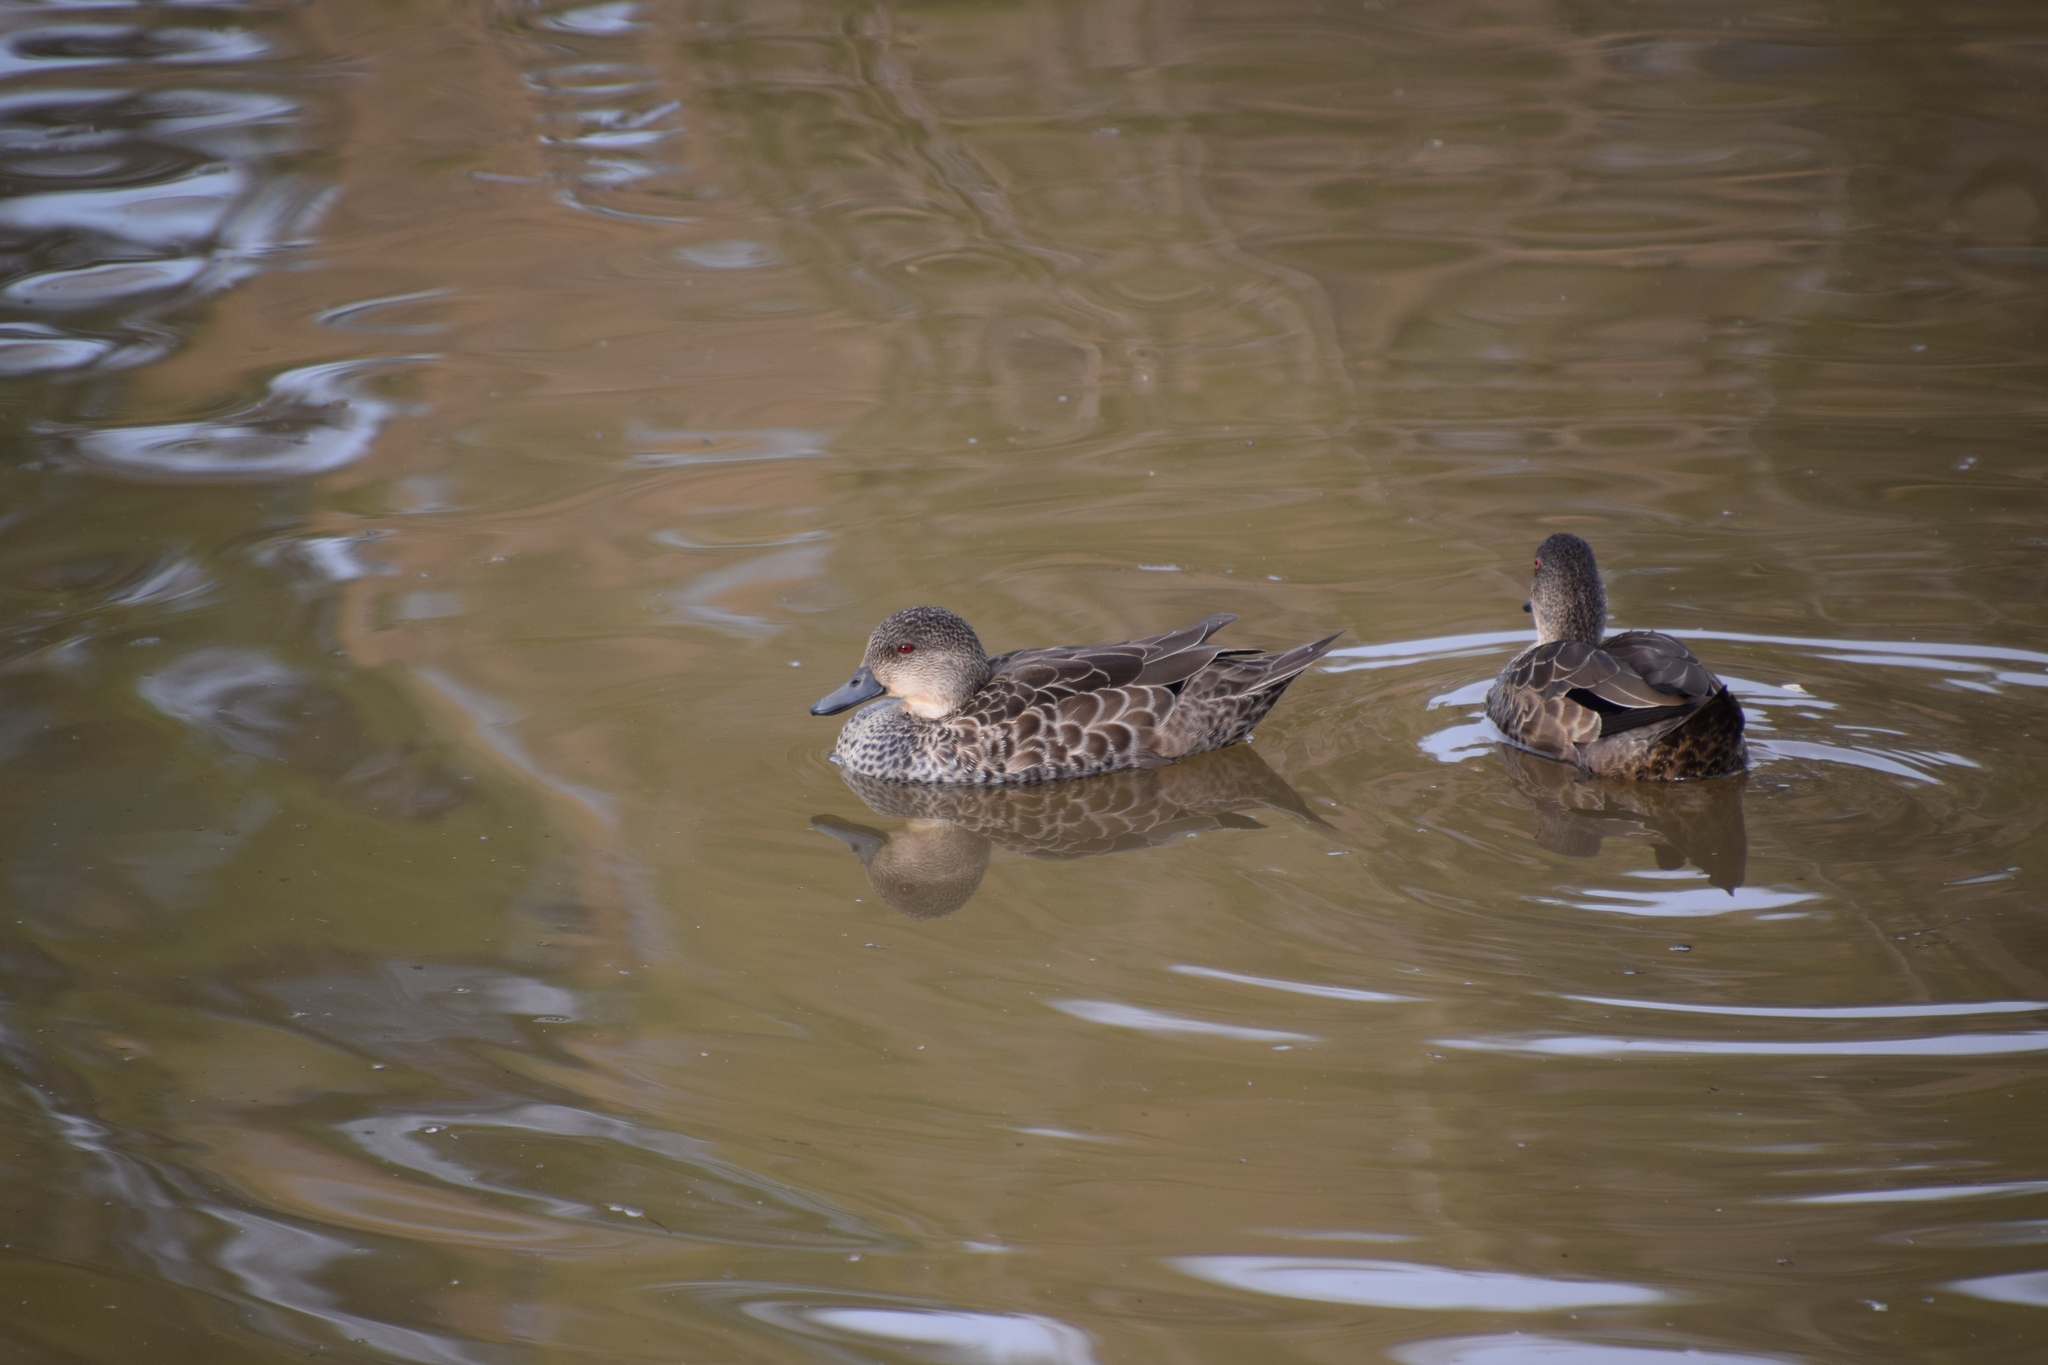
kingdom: Animalia
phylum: Chordata
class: Aves
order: Anseriformes
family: Anatidae
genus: Anas
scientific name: Anas gracilis
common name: Grey teal
